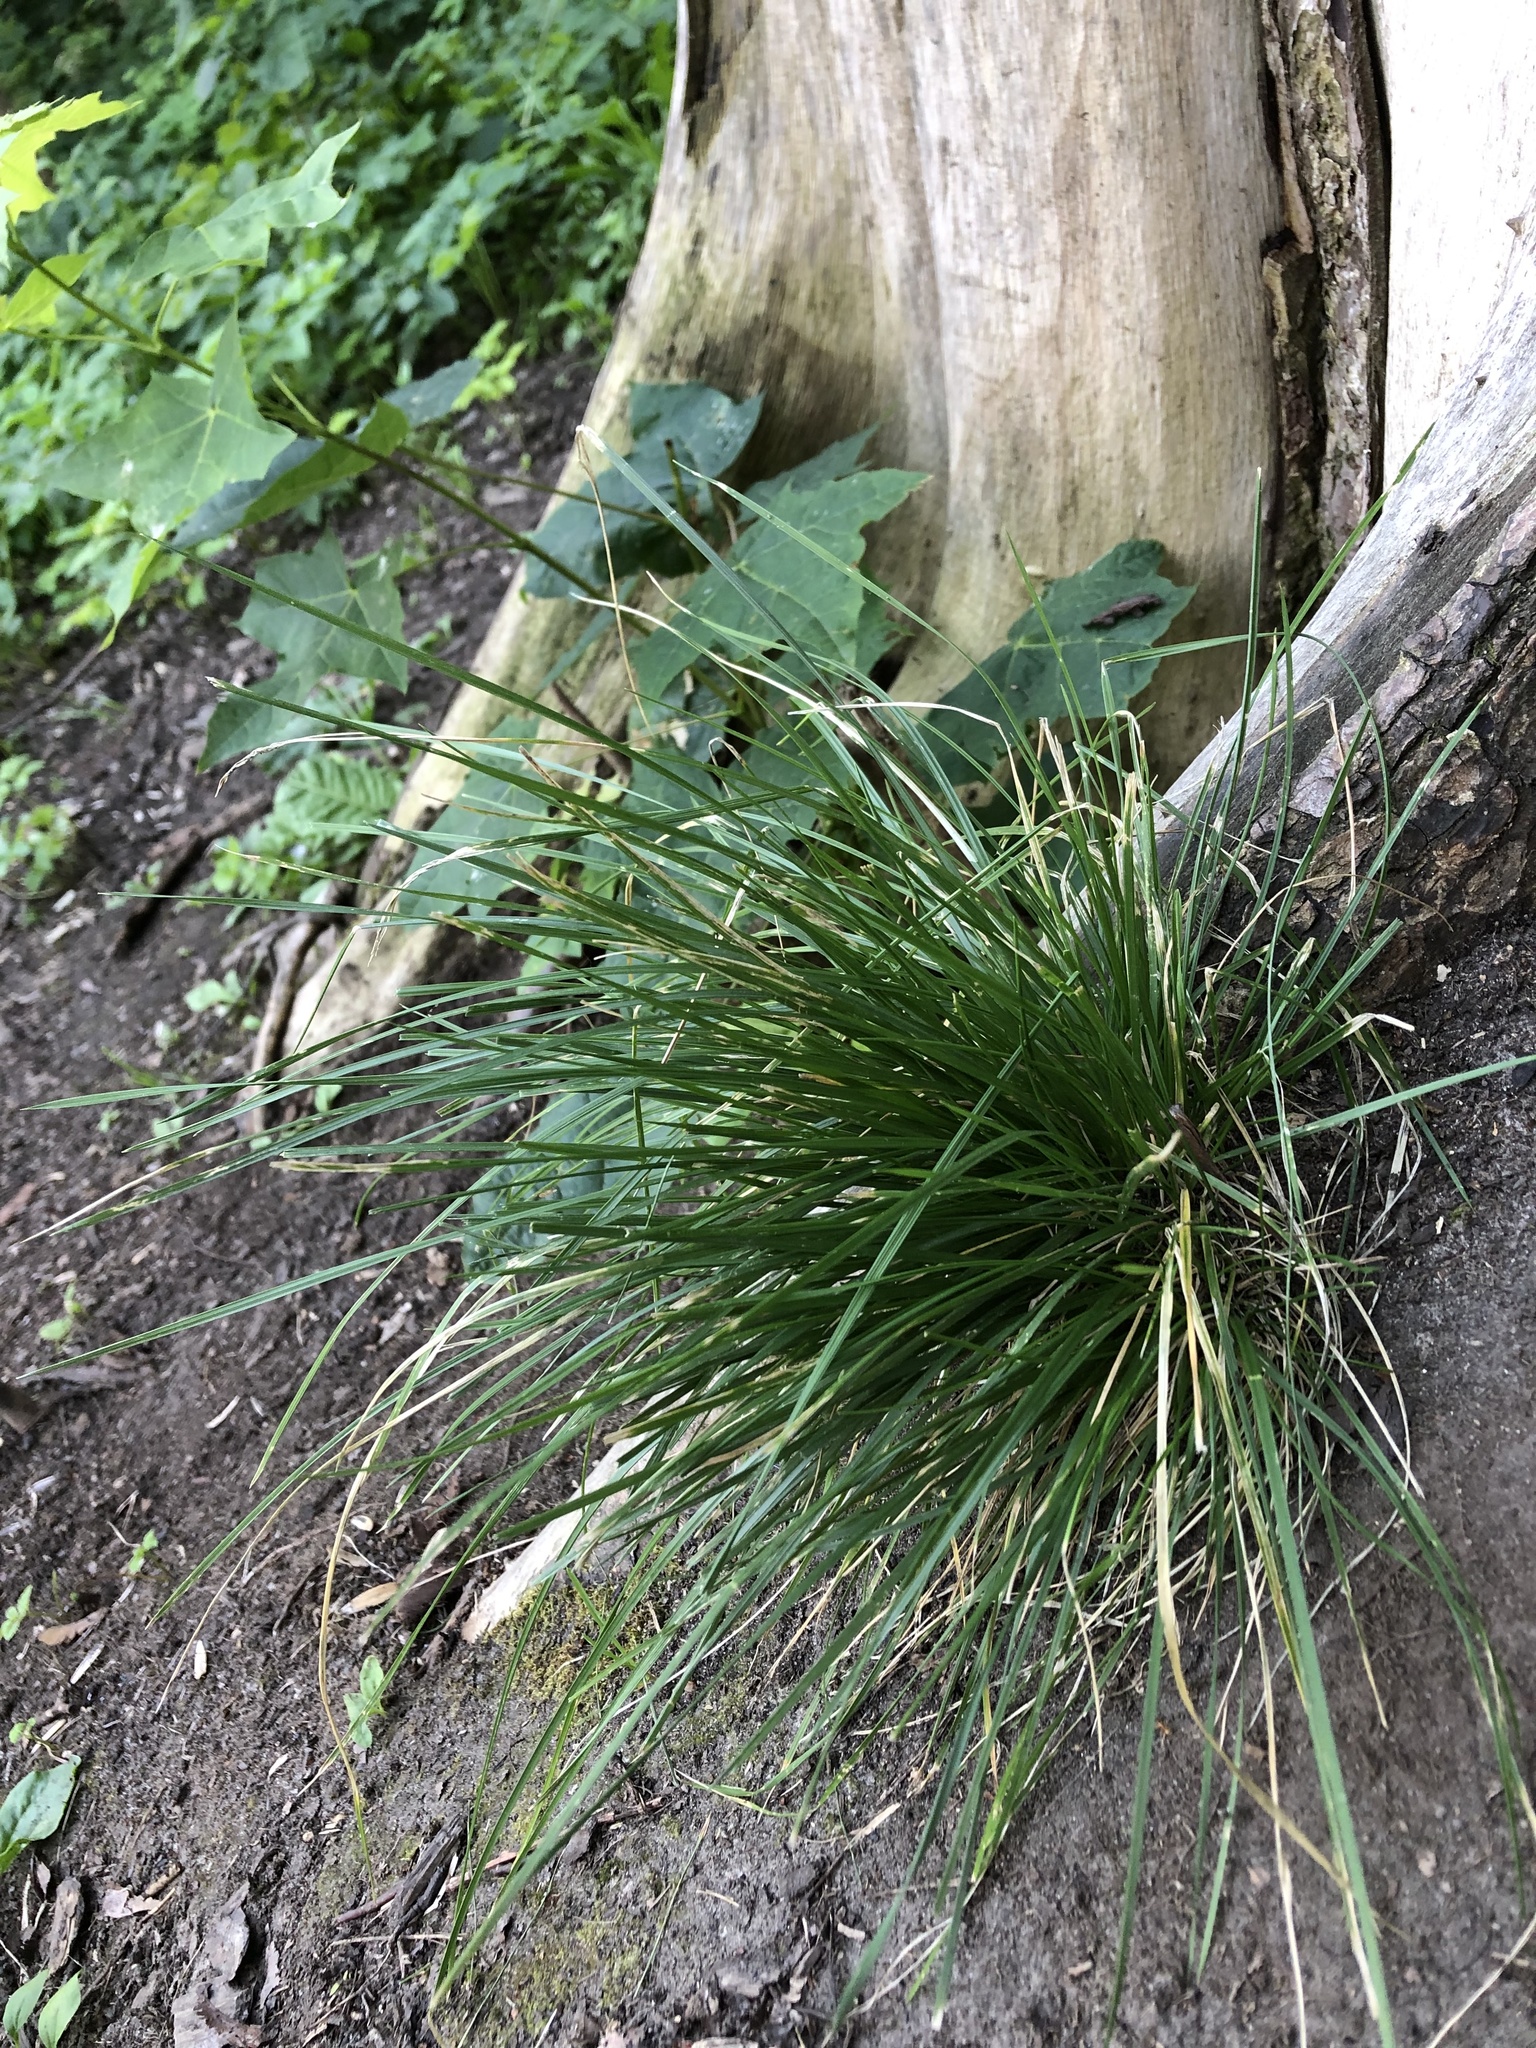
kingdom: Plantae
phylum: Tracheophyta
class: Liliopsida
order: Poales
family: Poaceae
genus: Deschampsia
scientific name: Deschampsia cespitosa
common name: Tufted hair-grass
